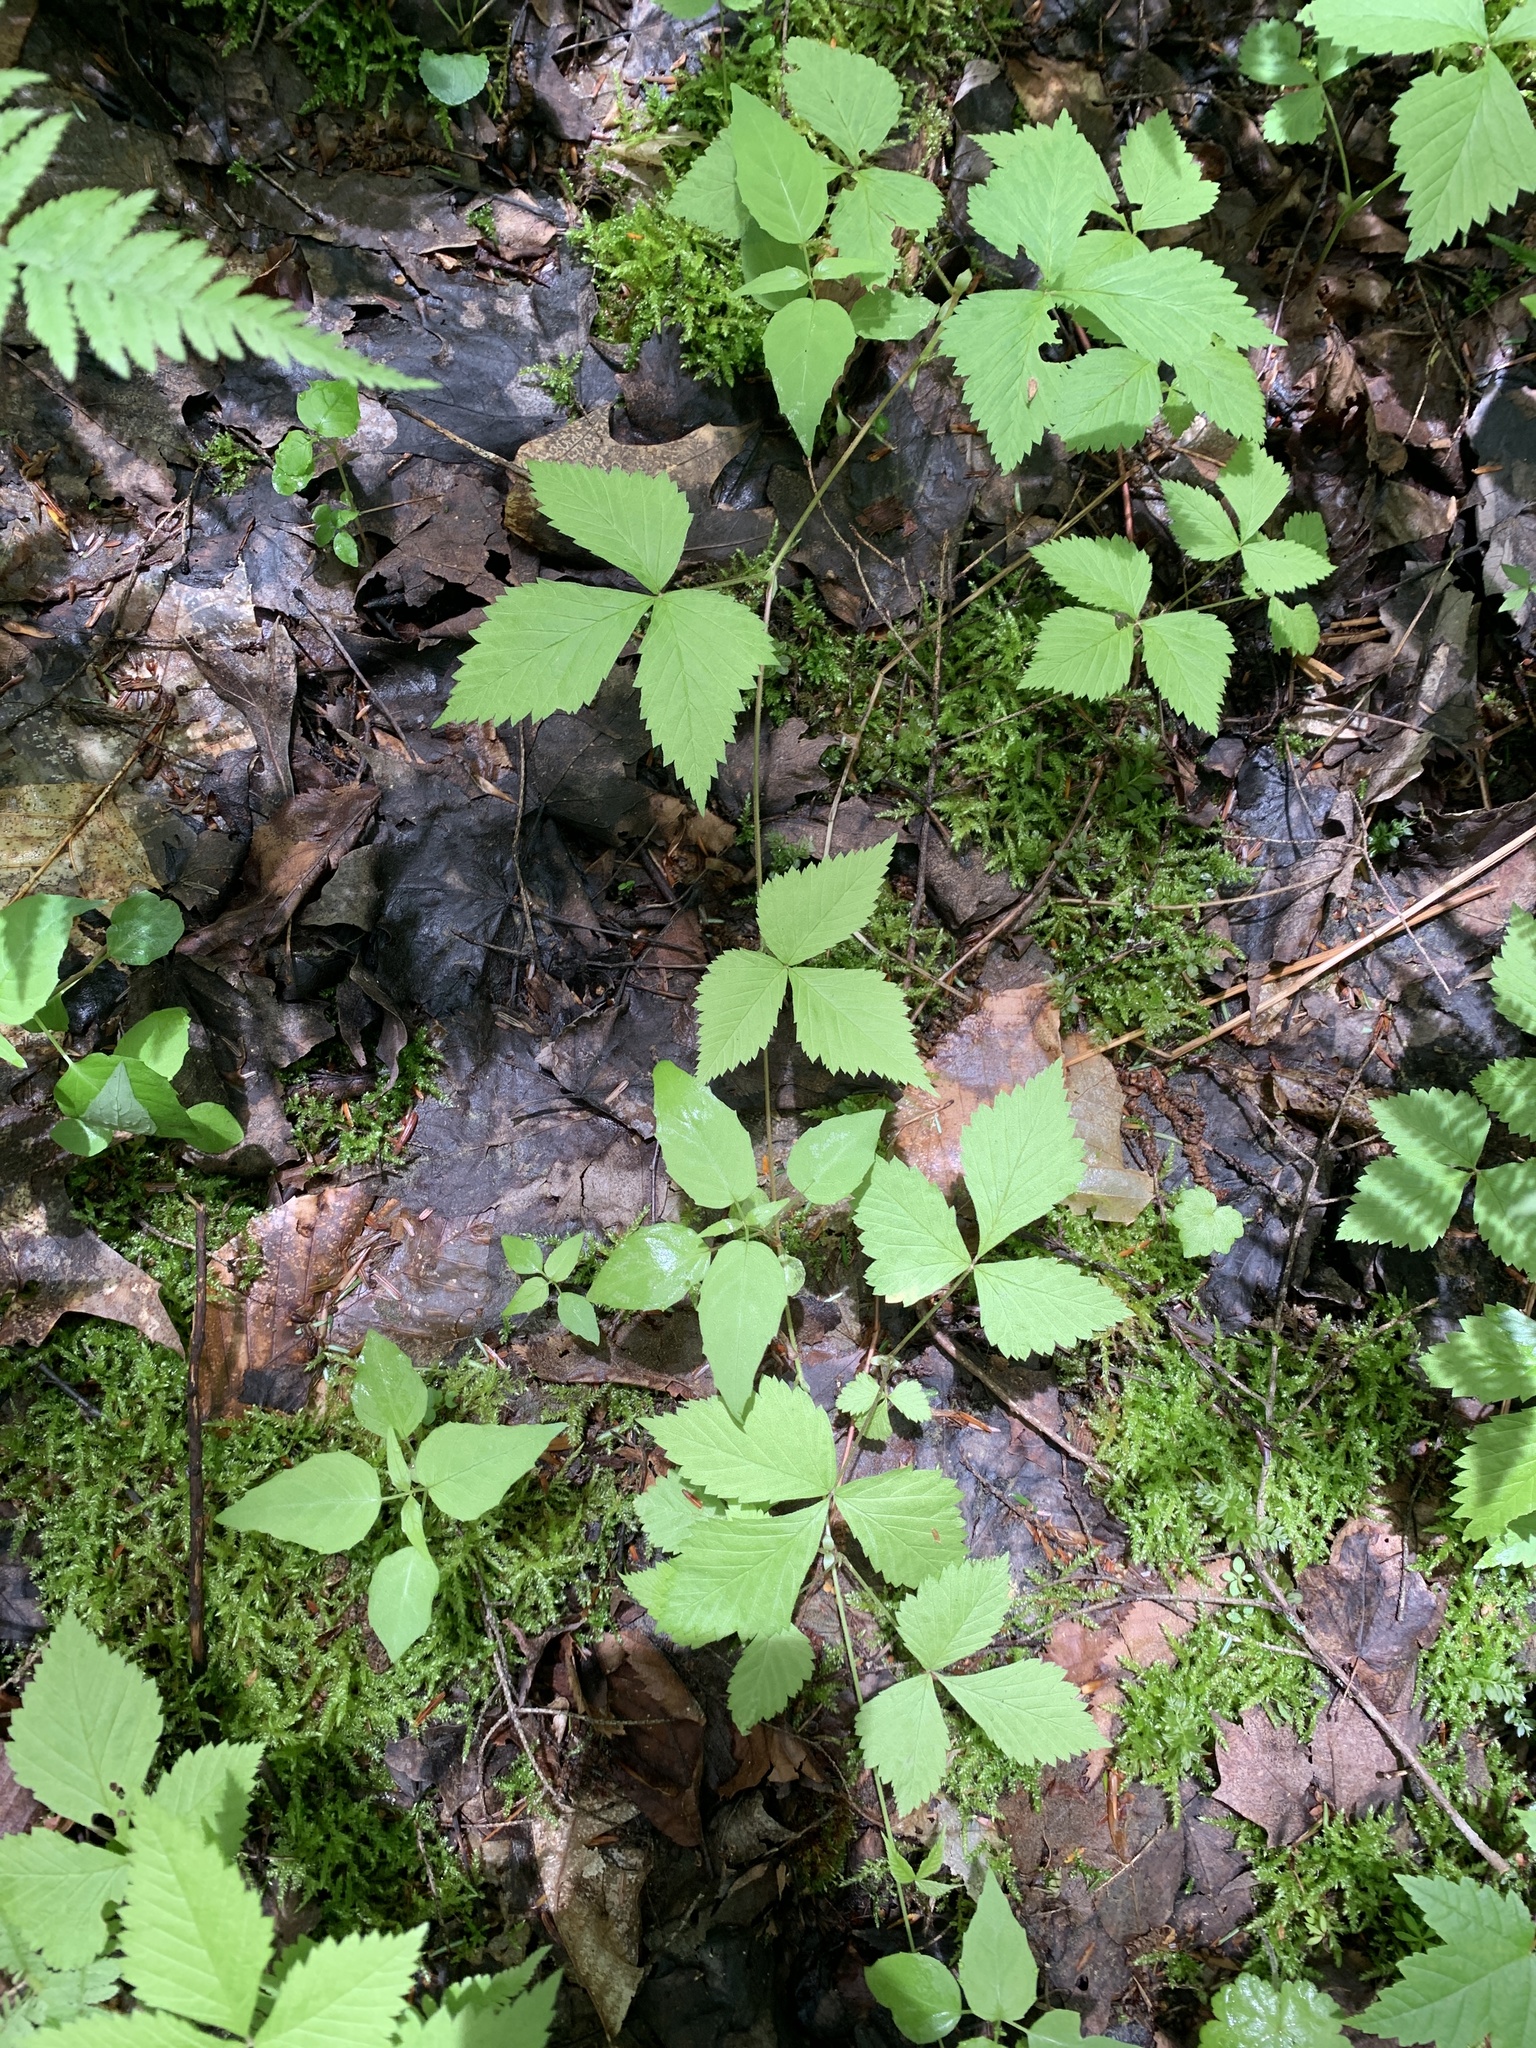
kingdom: Plantae
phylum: Tracheophyta
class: Magnoliopsida
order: Rosales
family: Rosaceae
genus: Rubus
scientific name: Rubus pubescens
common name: Dwarf raspberry
